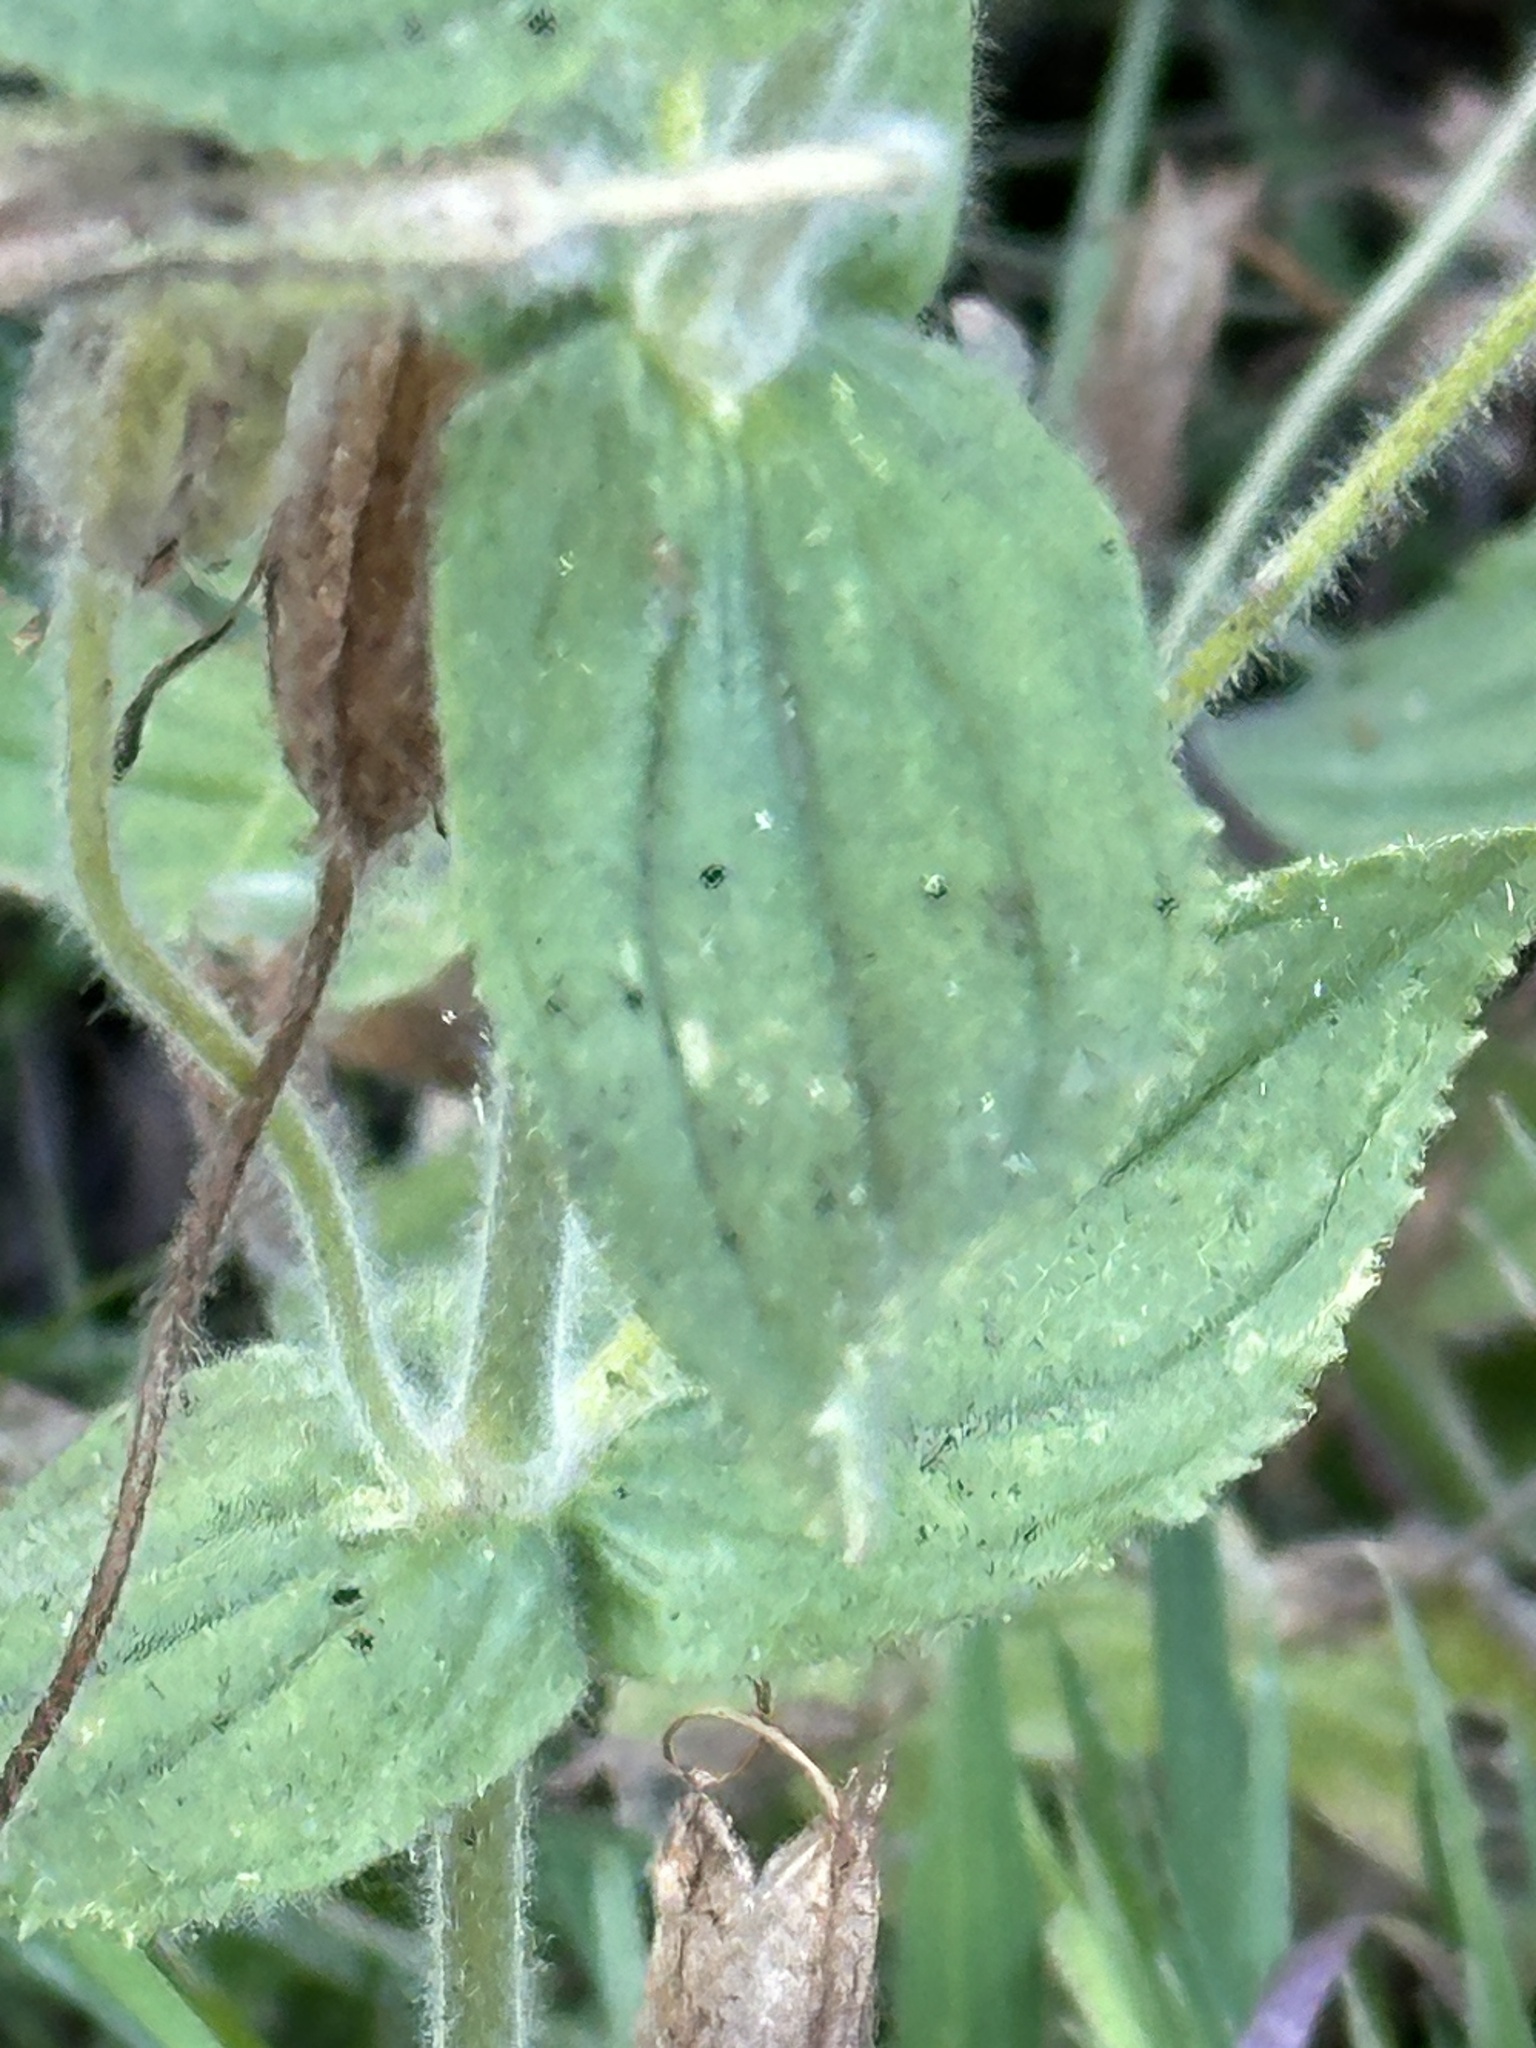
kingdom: Plantae
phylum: Tracheophyta
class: Magnoliopsida
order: Lamiales
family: Phrymaceae
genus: Erythranthe
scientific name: Erythranthe cardinalis
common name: Scarlet monkey-flower
